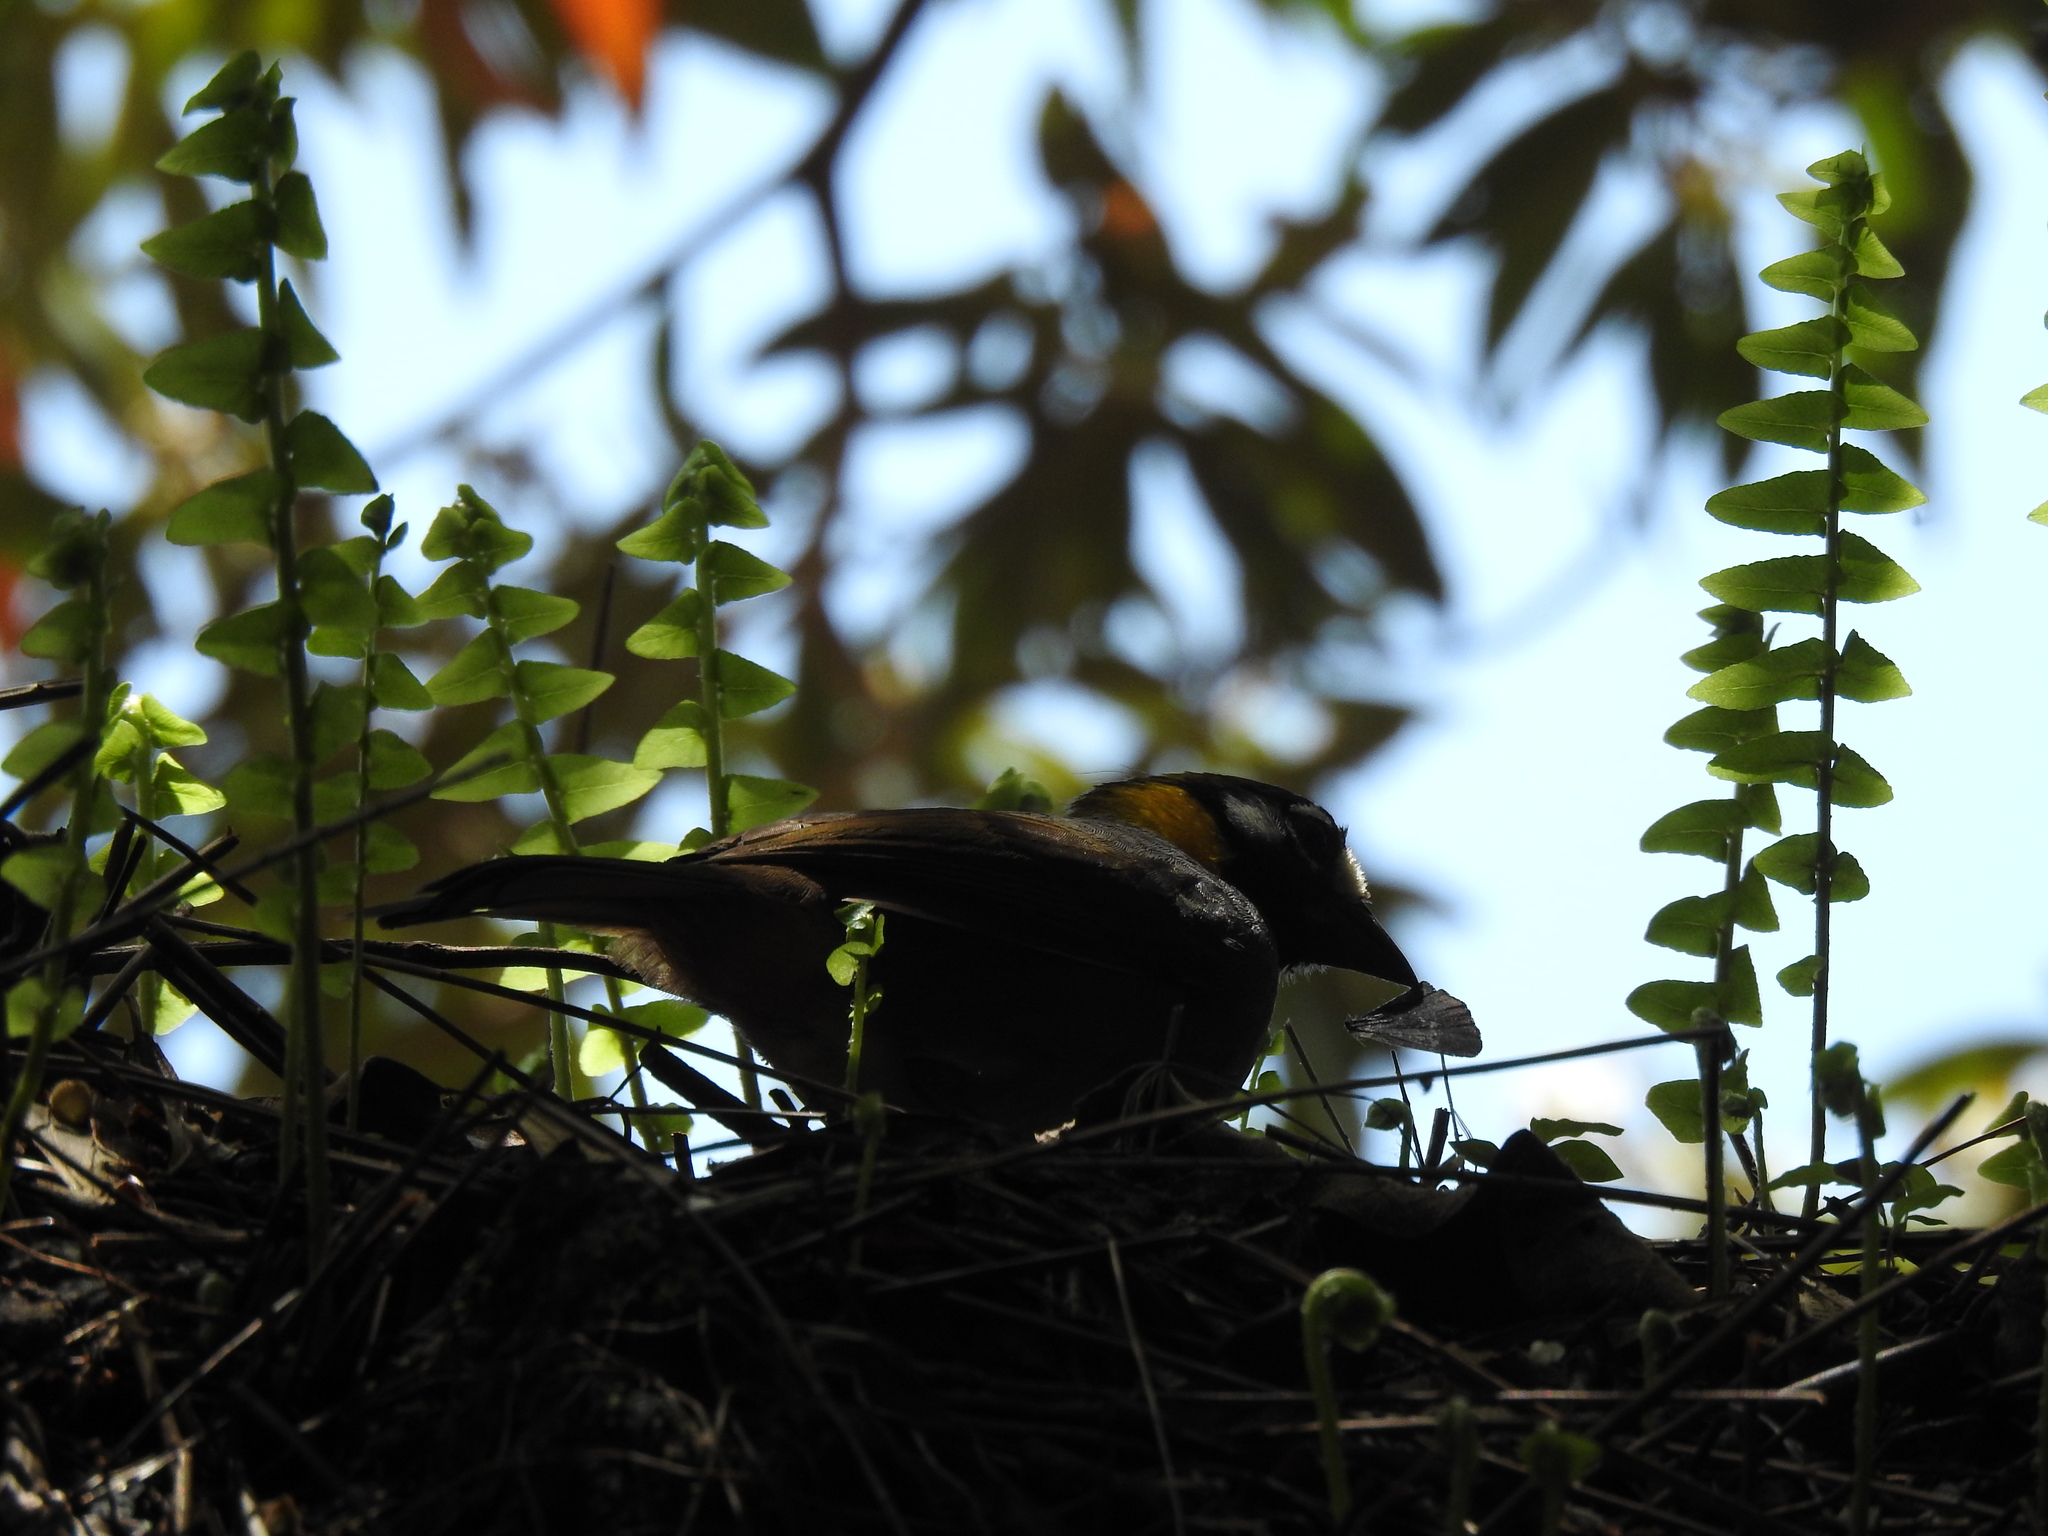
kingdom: Animalia
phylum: Chordata
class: Aves
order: Passeriformes
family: Passerellidae
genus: Melozone
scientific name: Melozone leucotis
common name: White-eared ground-sparrow
